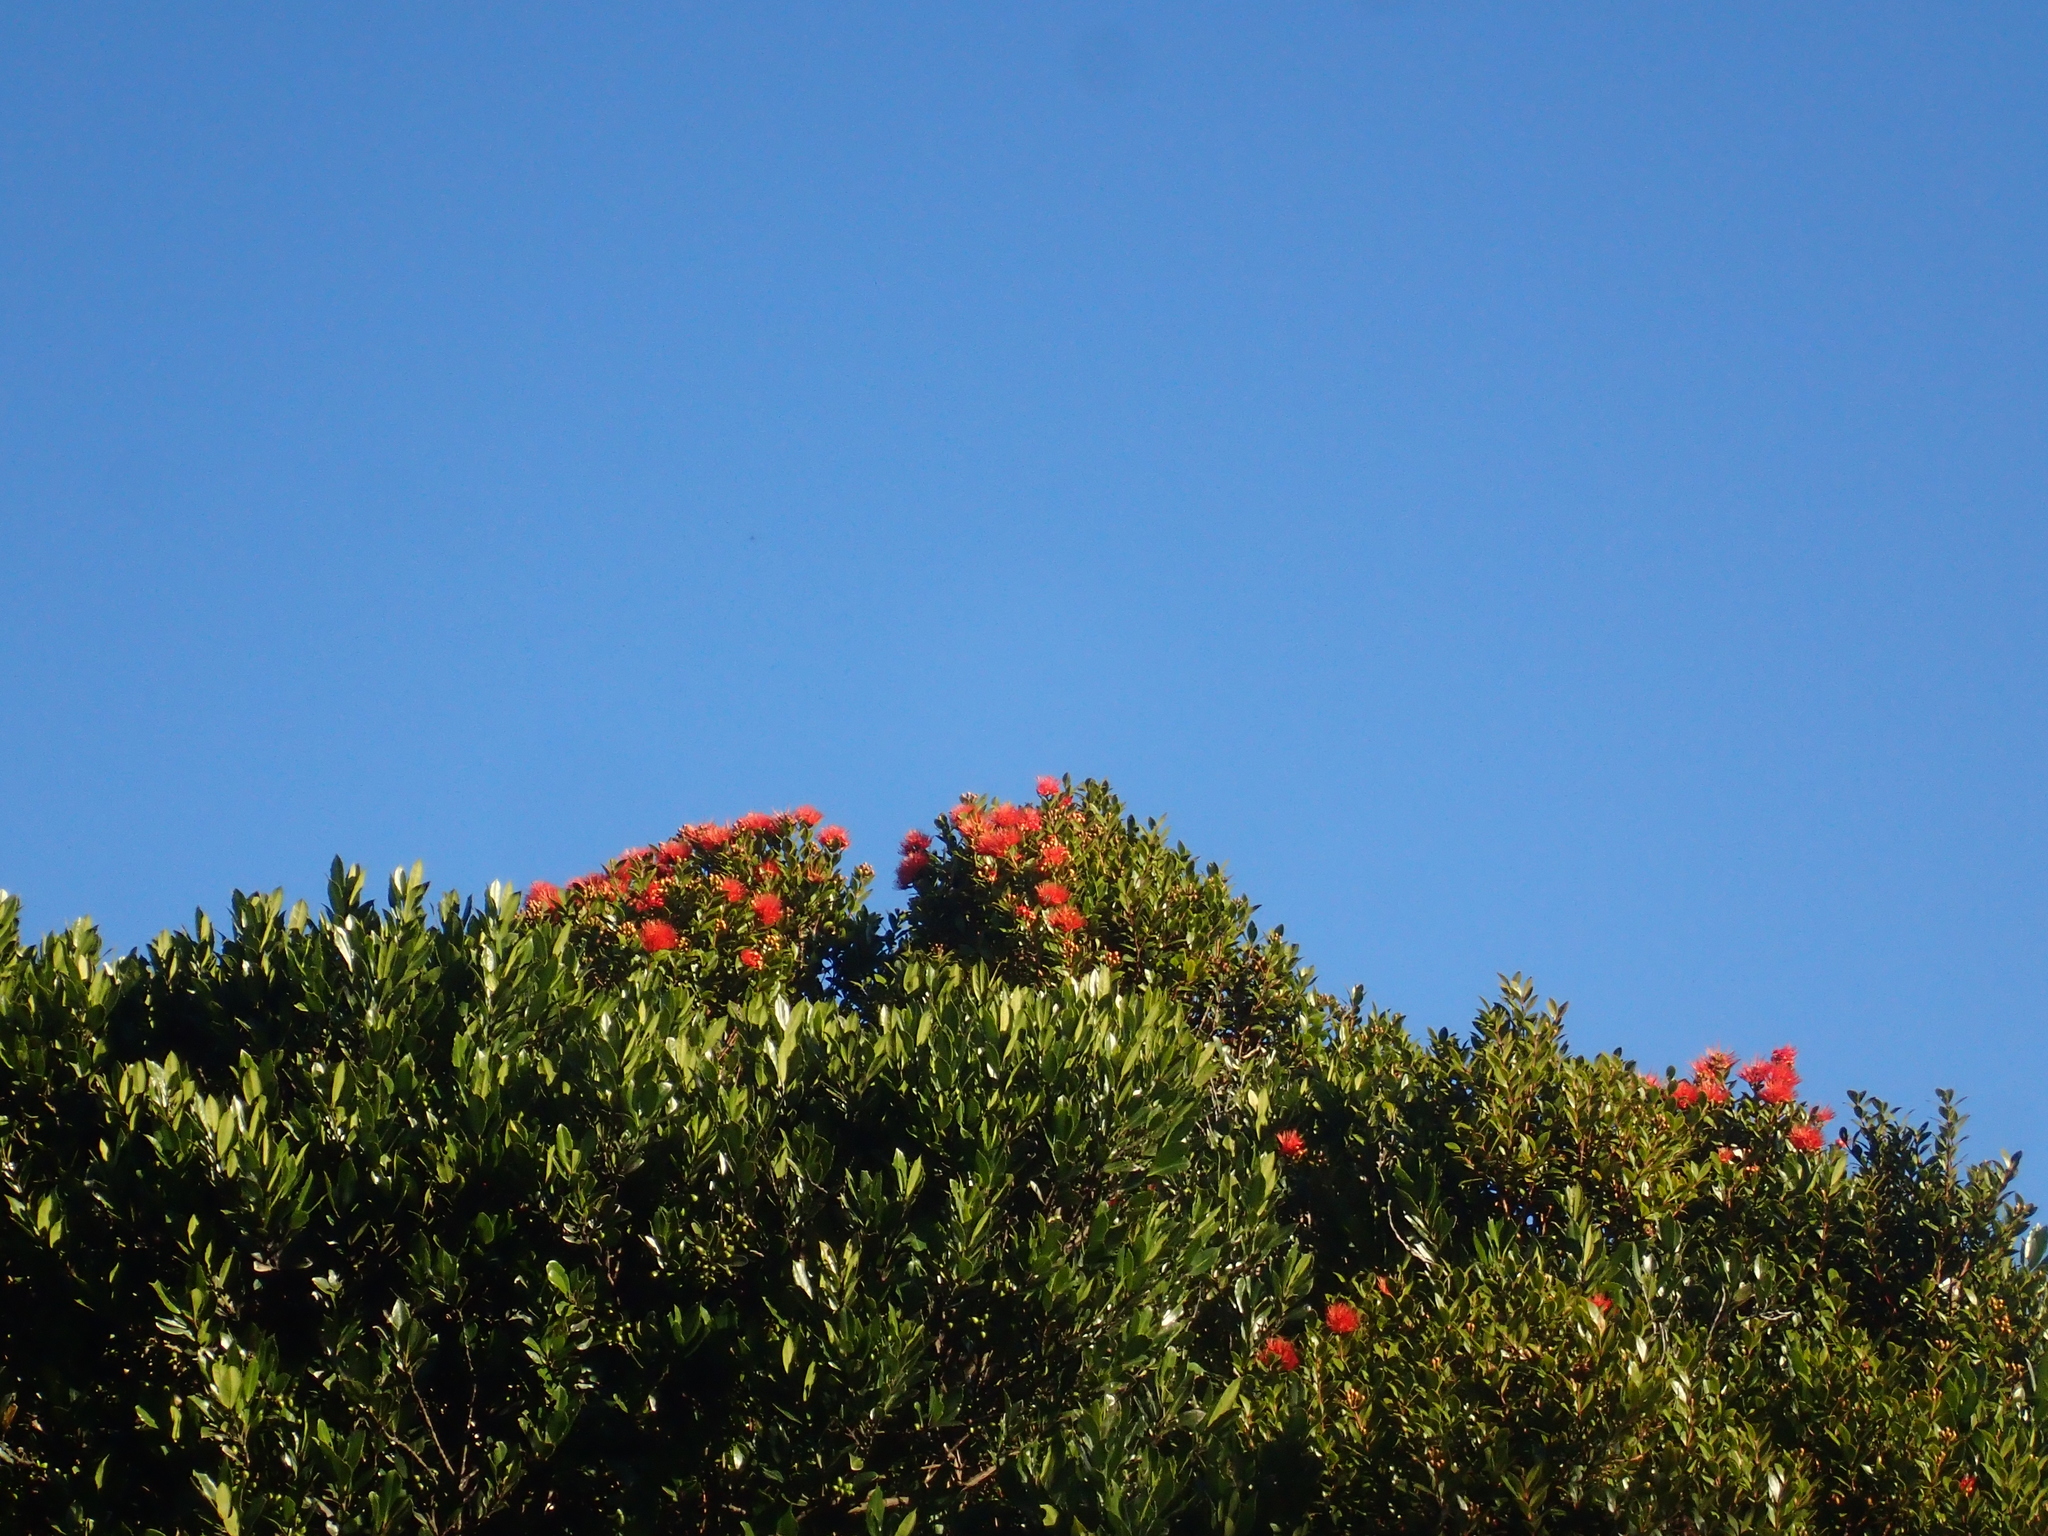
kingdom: Plantae
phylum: Tracheophyta
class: Magnoliopsida
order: Myrtales
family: Myrtaceae
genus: Metrosideros
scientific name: Metrosideros fulgens
